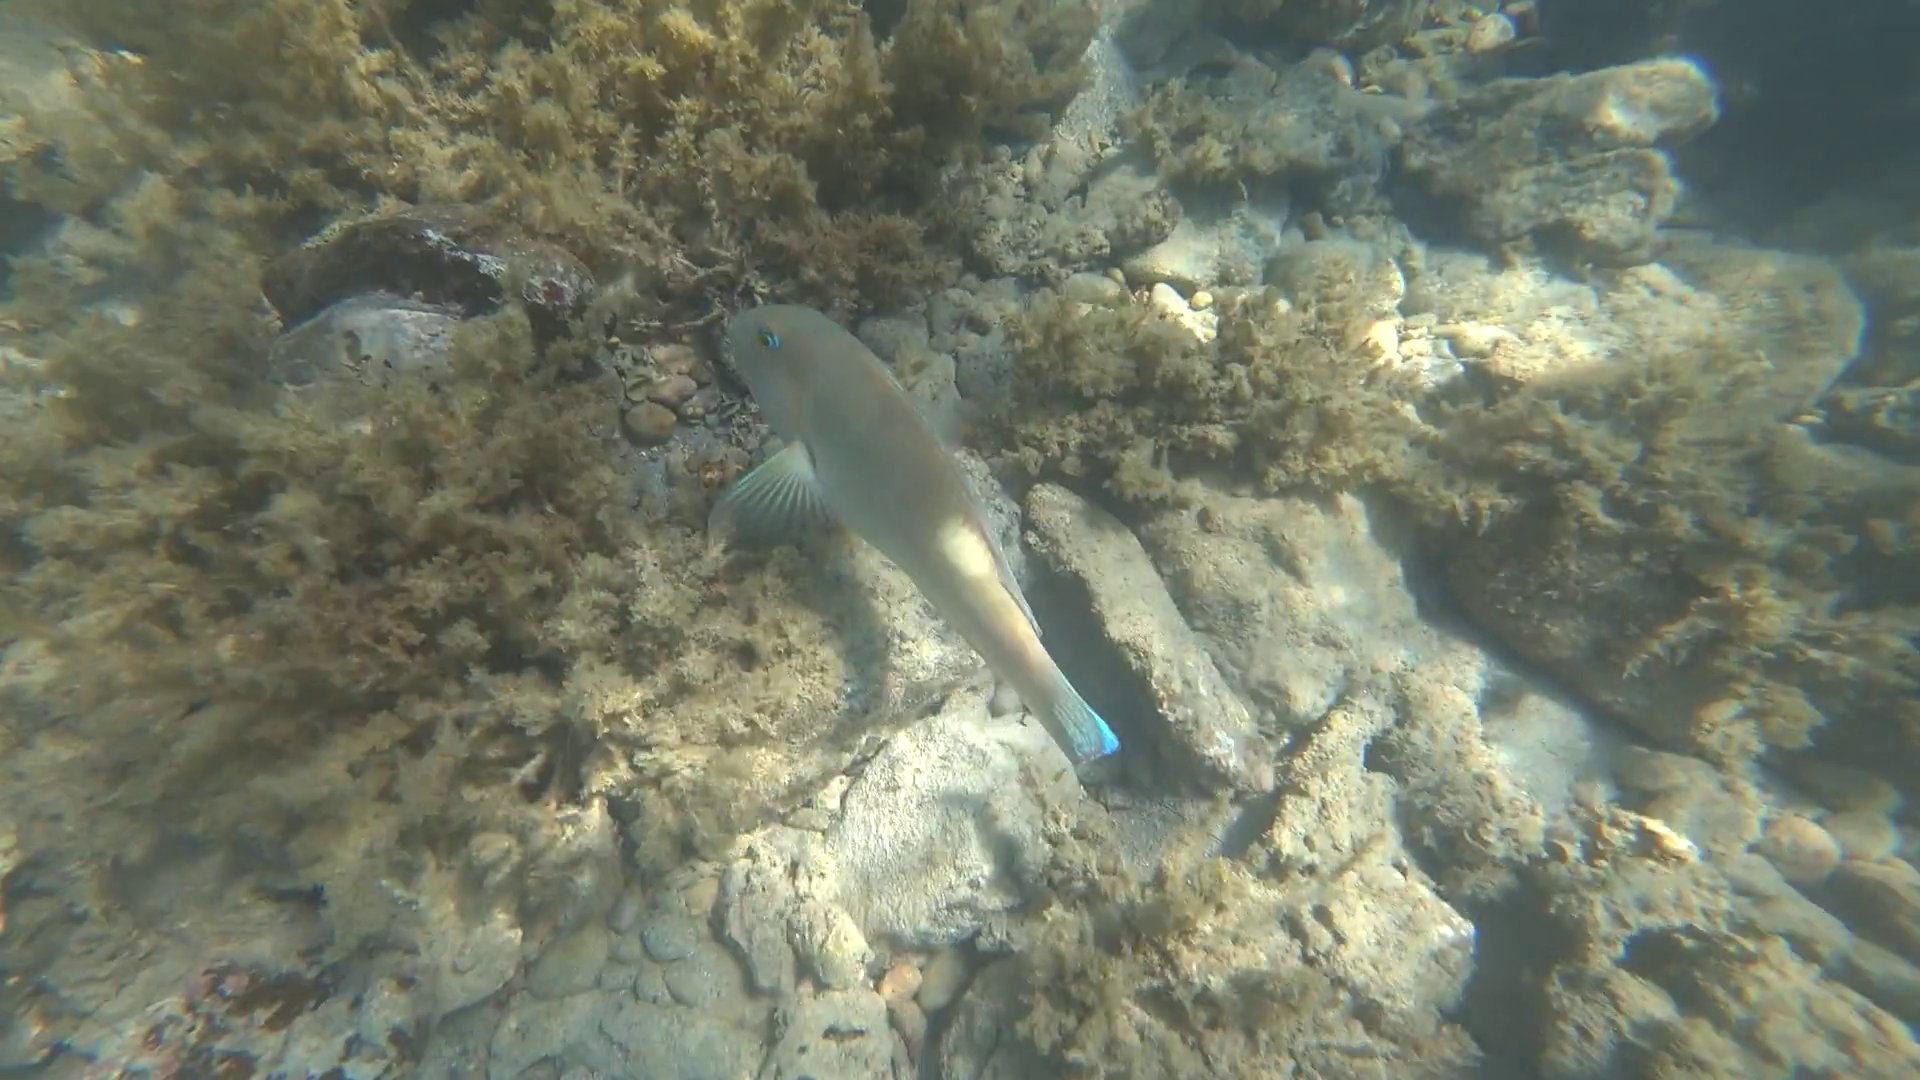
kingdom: Animalia
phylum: Chordata
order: Perciformes
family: Labridae
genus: Choerodon
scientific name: Choerodon cyanodus
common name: Blue tuskfish
